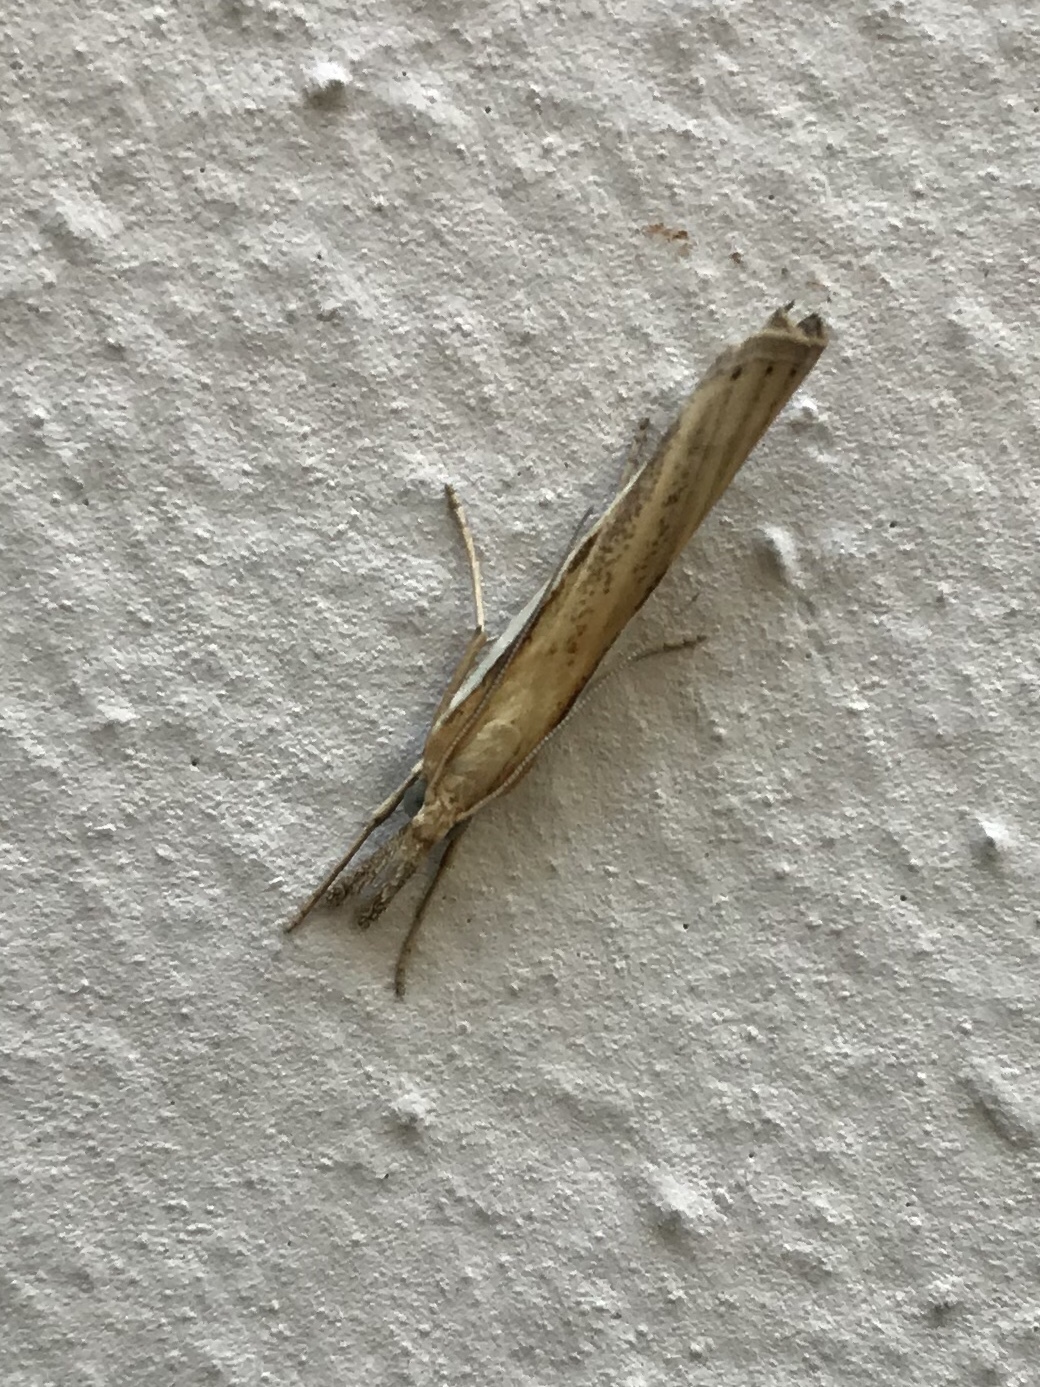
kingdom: Animalia
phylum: Arthropoda
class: Insecta
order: Lepidoptera
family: Crambidae
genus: Agriphila
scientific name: Agriphila tristellus
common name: Common grass-veneer
